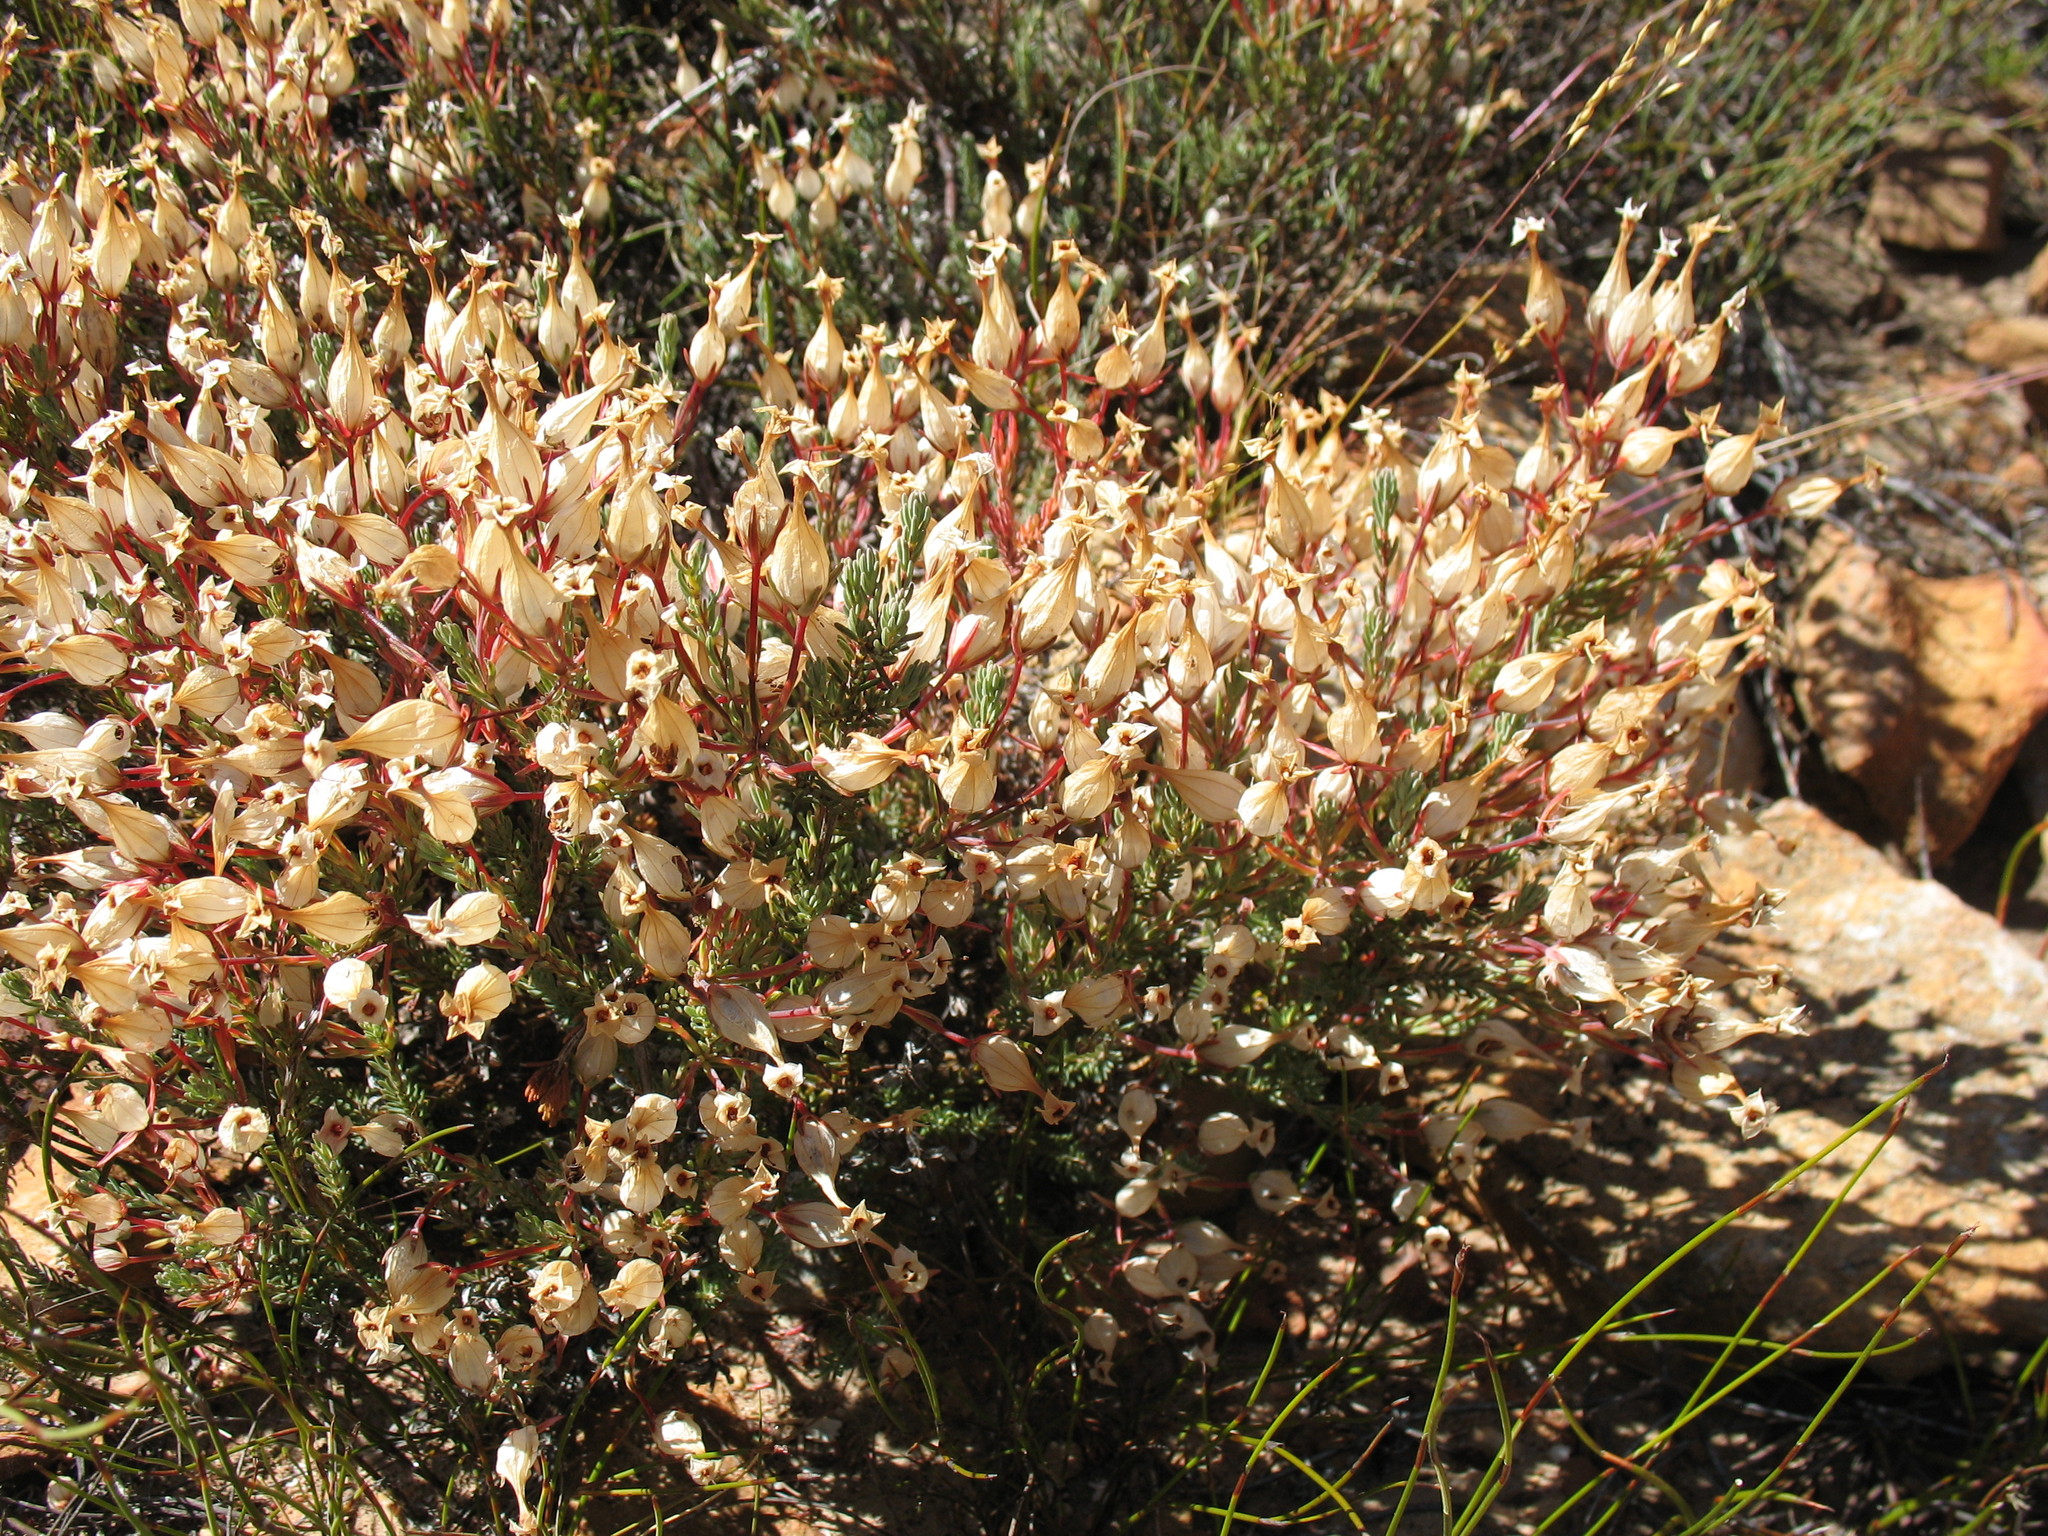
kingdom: Plantae
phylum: Tracheophyta
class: Magnoliopsida
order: Ericales
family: Ericaceae
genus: Erica
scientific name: Erica junonia
